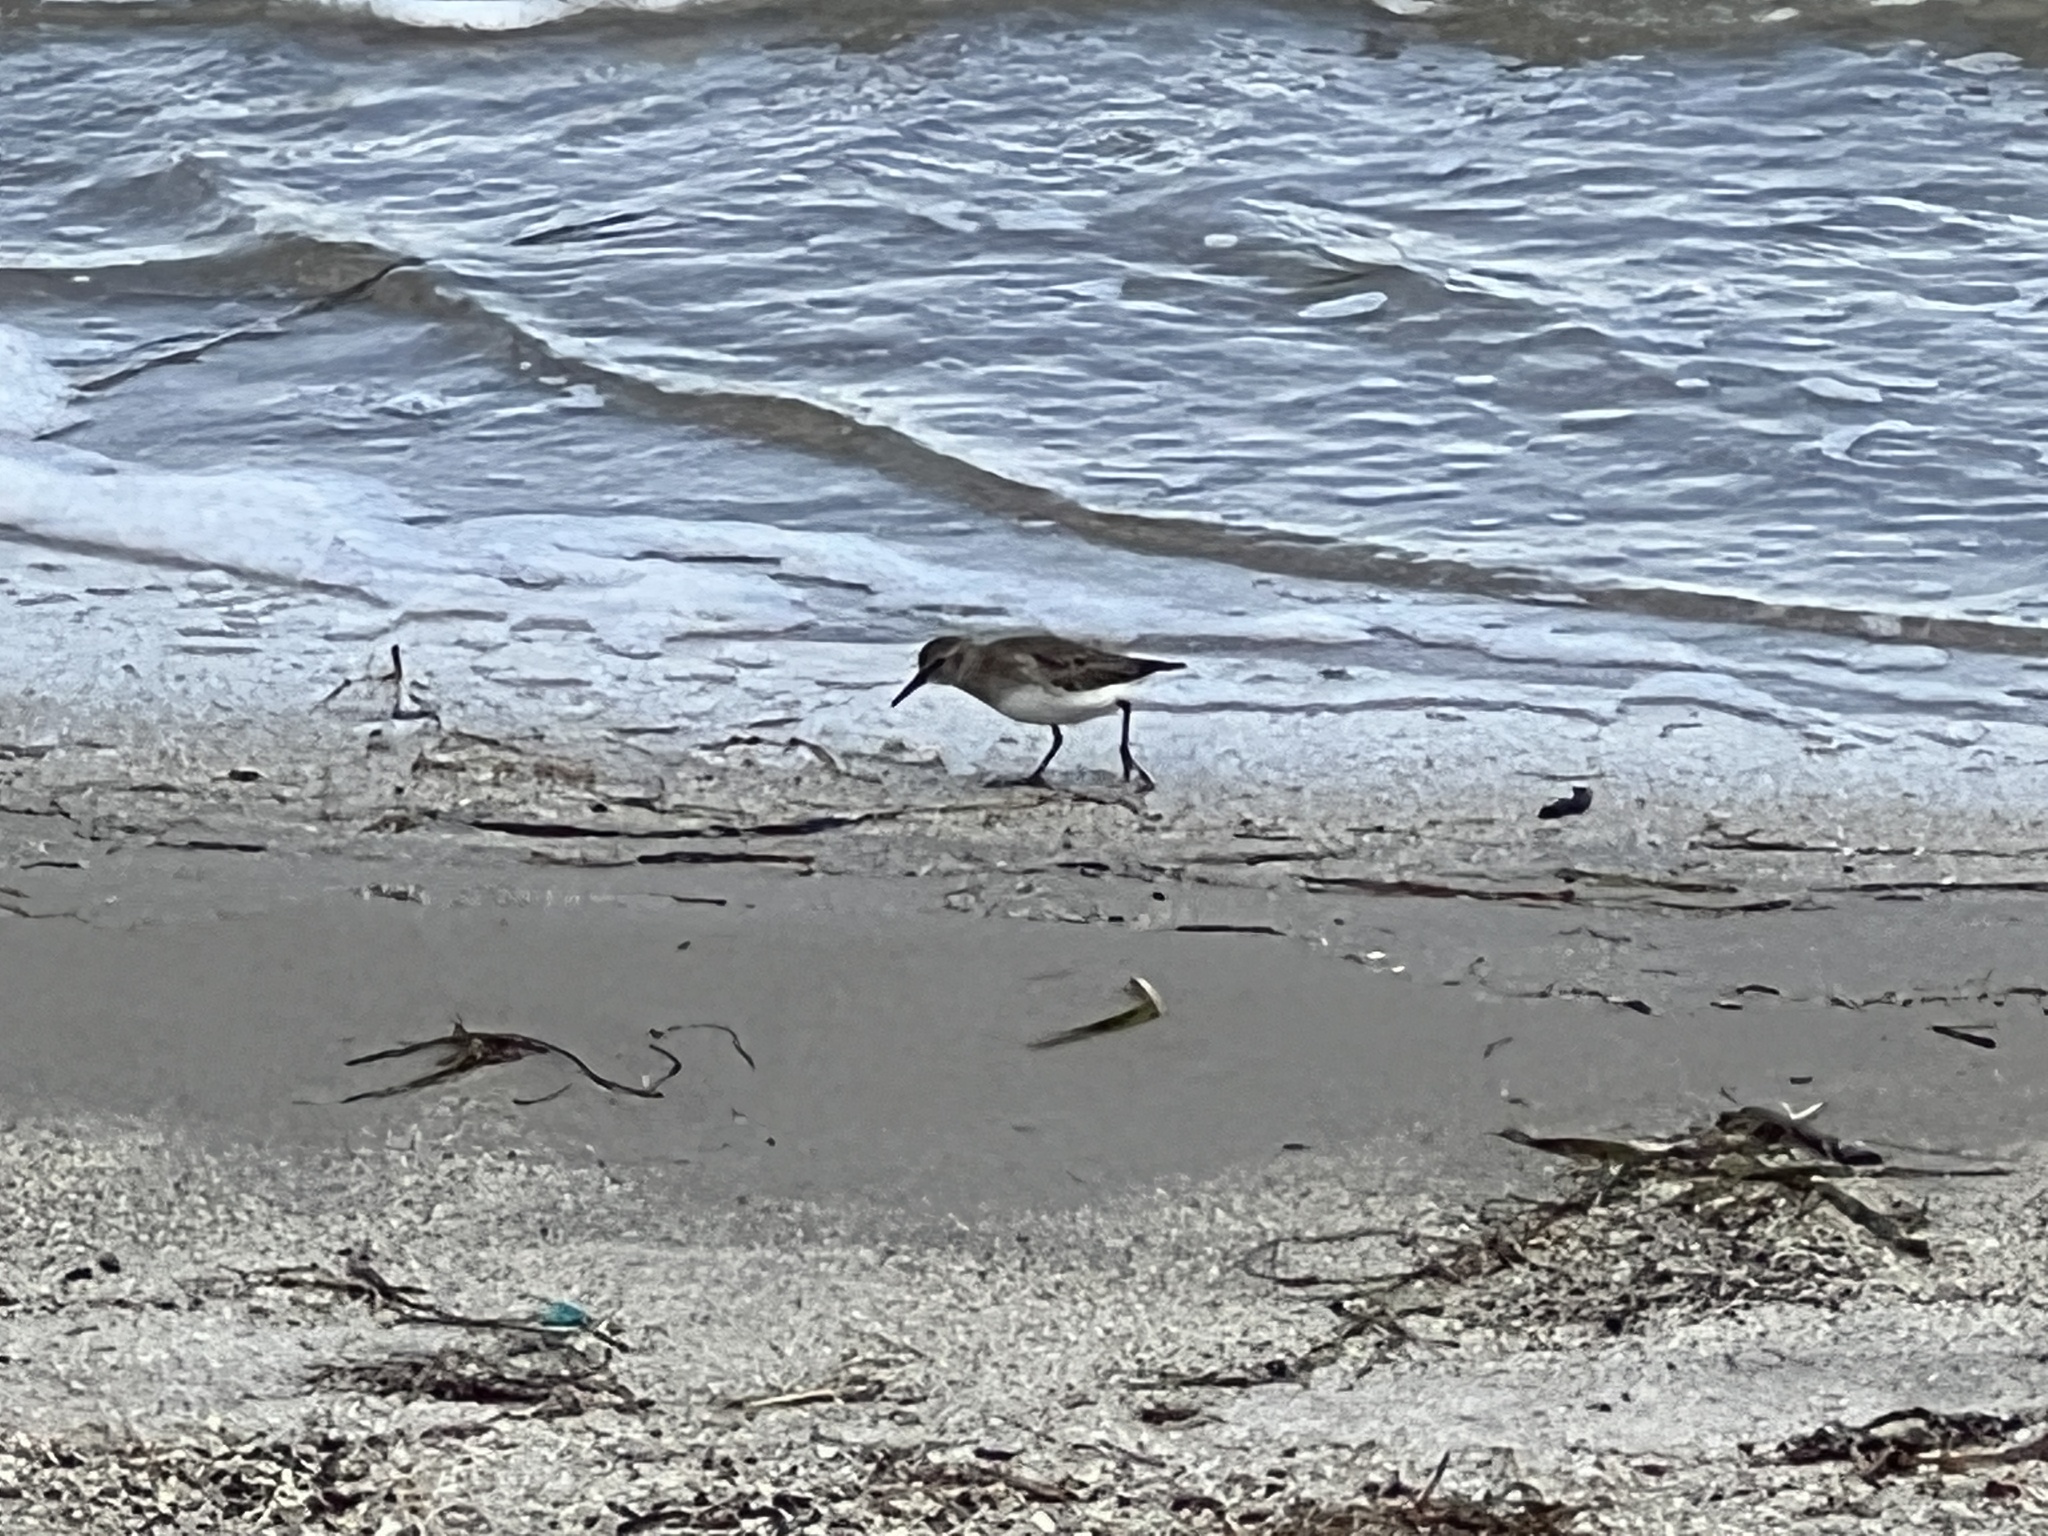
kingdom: Animalia
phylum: Chordata
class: Aves
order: Charadriiformes
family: Scolopacidae
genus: Calidris
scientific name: Calidris minutilla
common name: Least sandpiper
